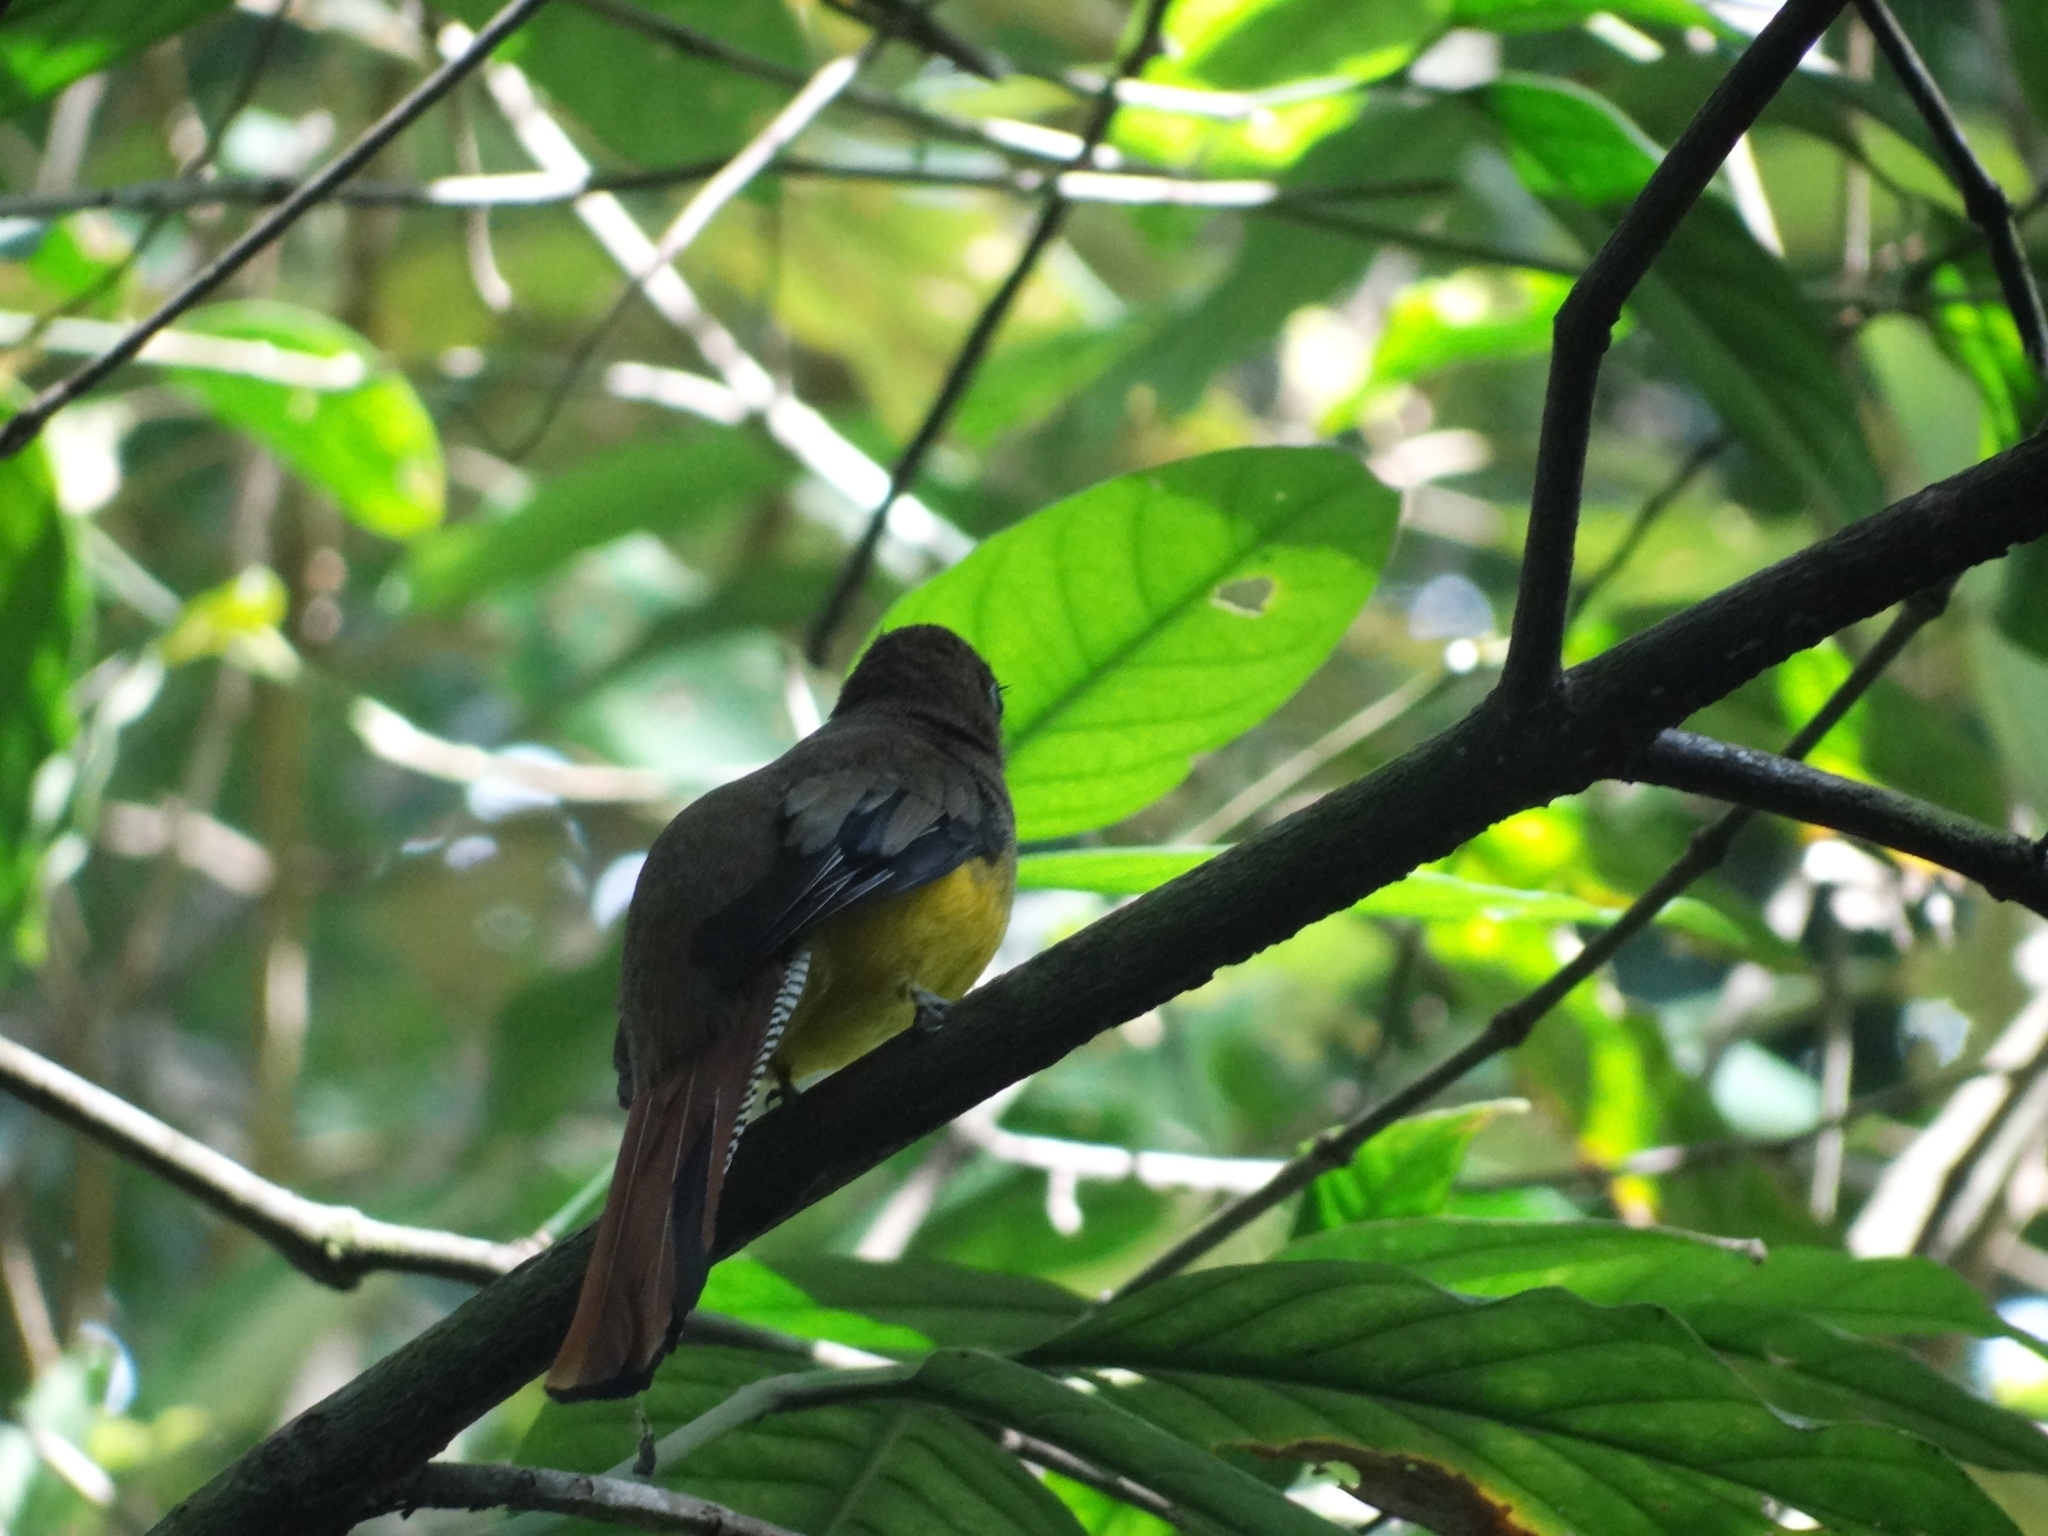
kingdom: Animalia
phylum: Chordata
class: Aves
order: Trogoniformes
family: Trogonidae
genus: Trogon
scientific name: Trogon rufus
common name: Black-throated trogon
